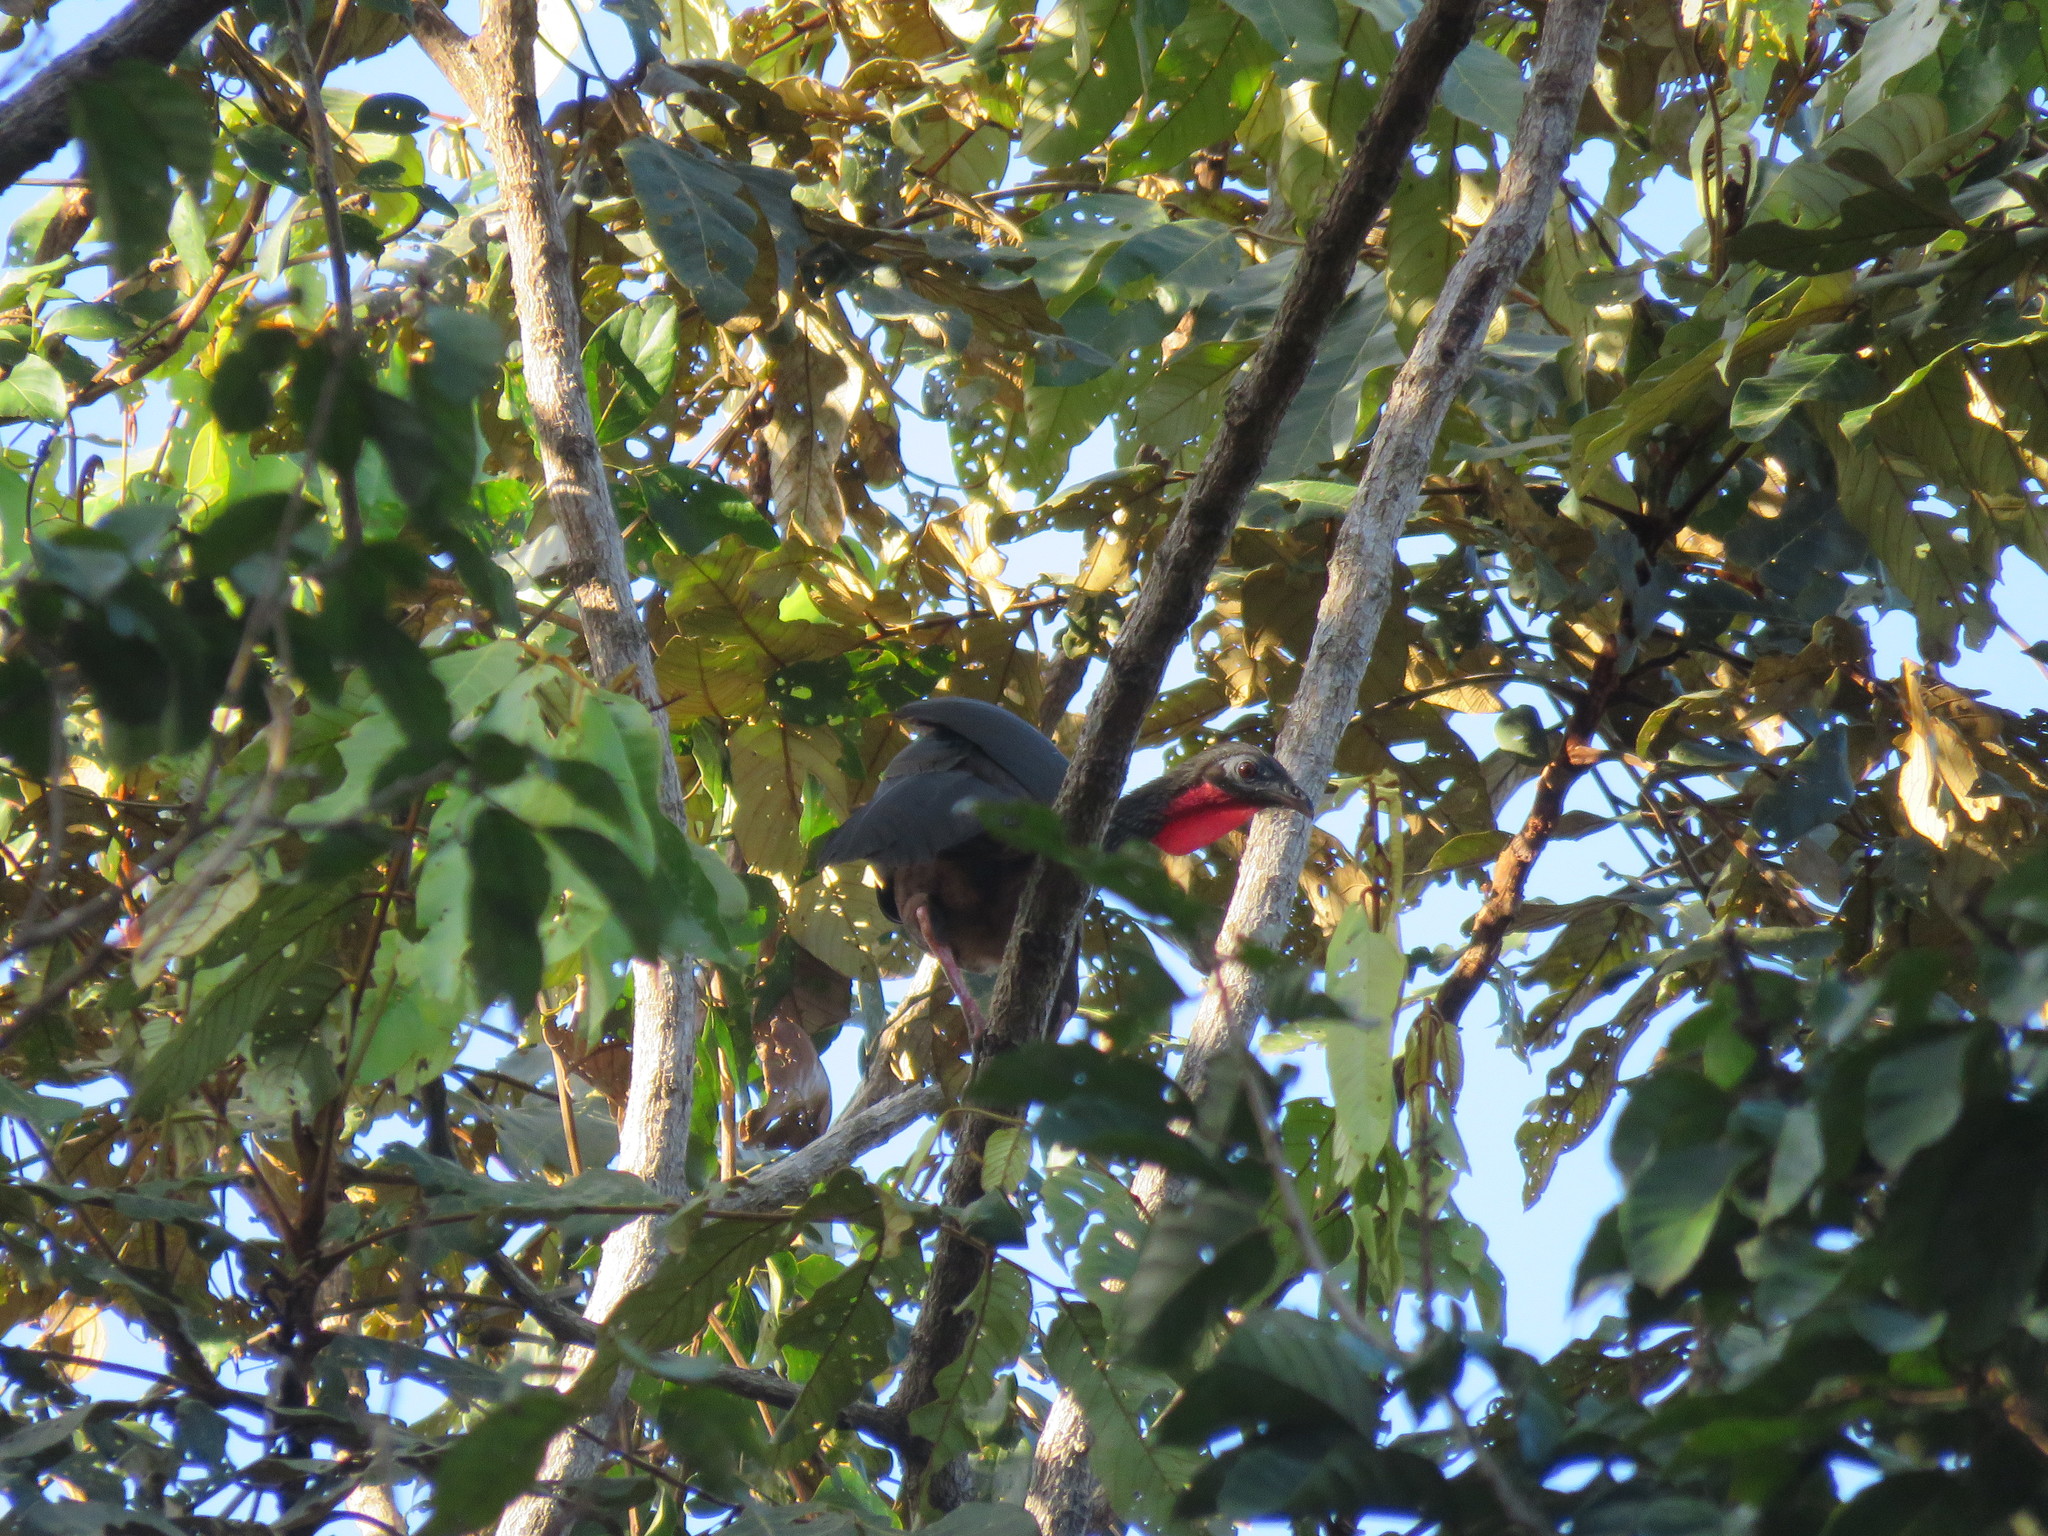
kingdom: Animalia
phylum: Chordata
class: Aves
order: Galliformes
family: Cracidae
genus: Penelope
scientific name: Penelope jacquacu
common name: Spix's guan
